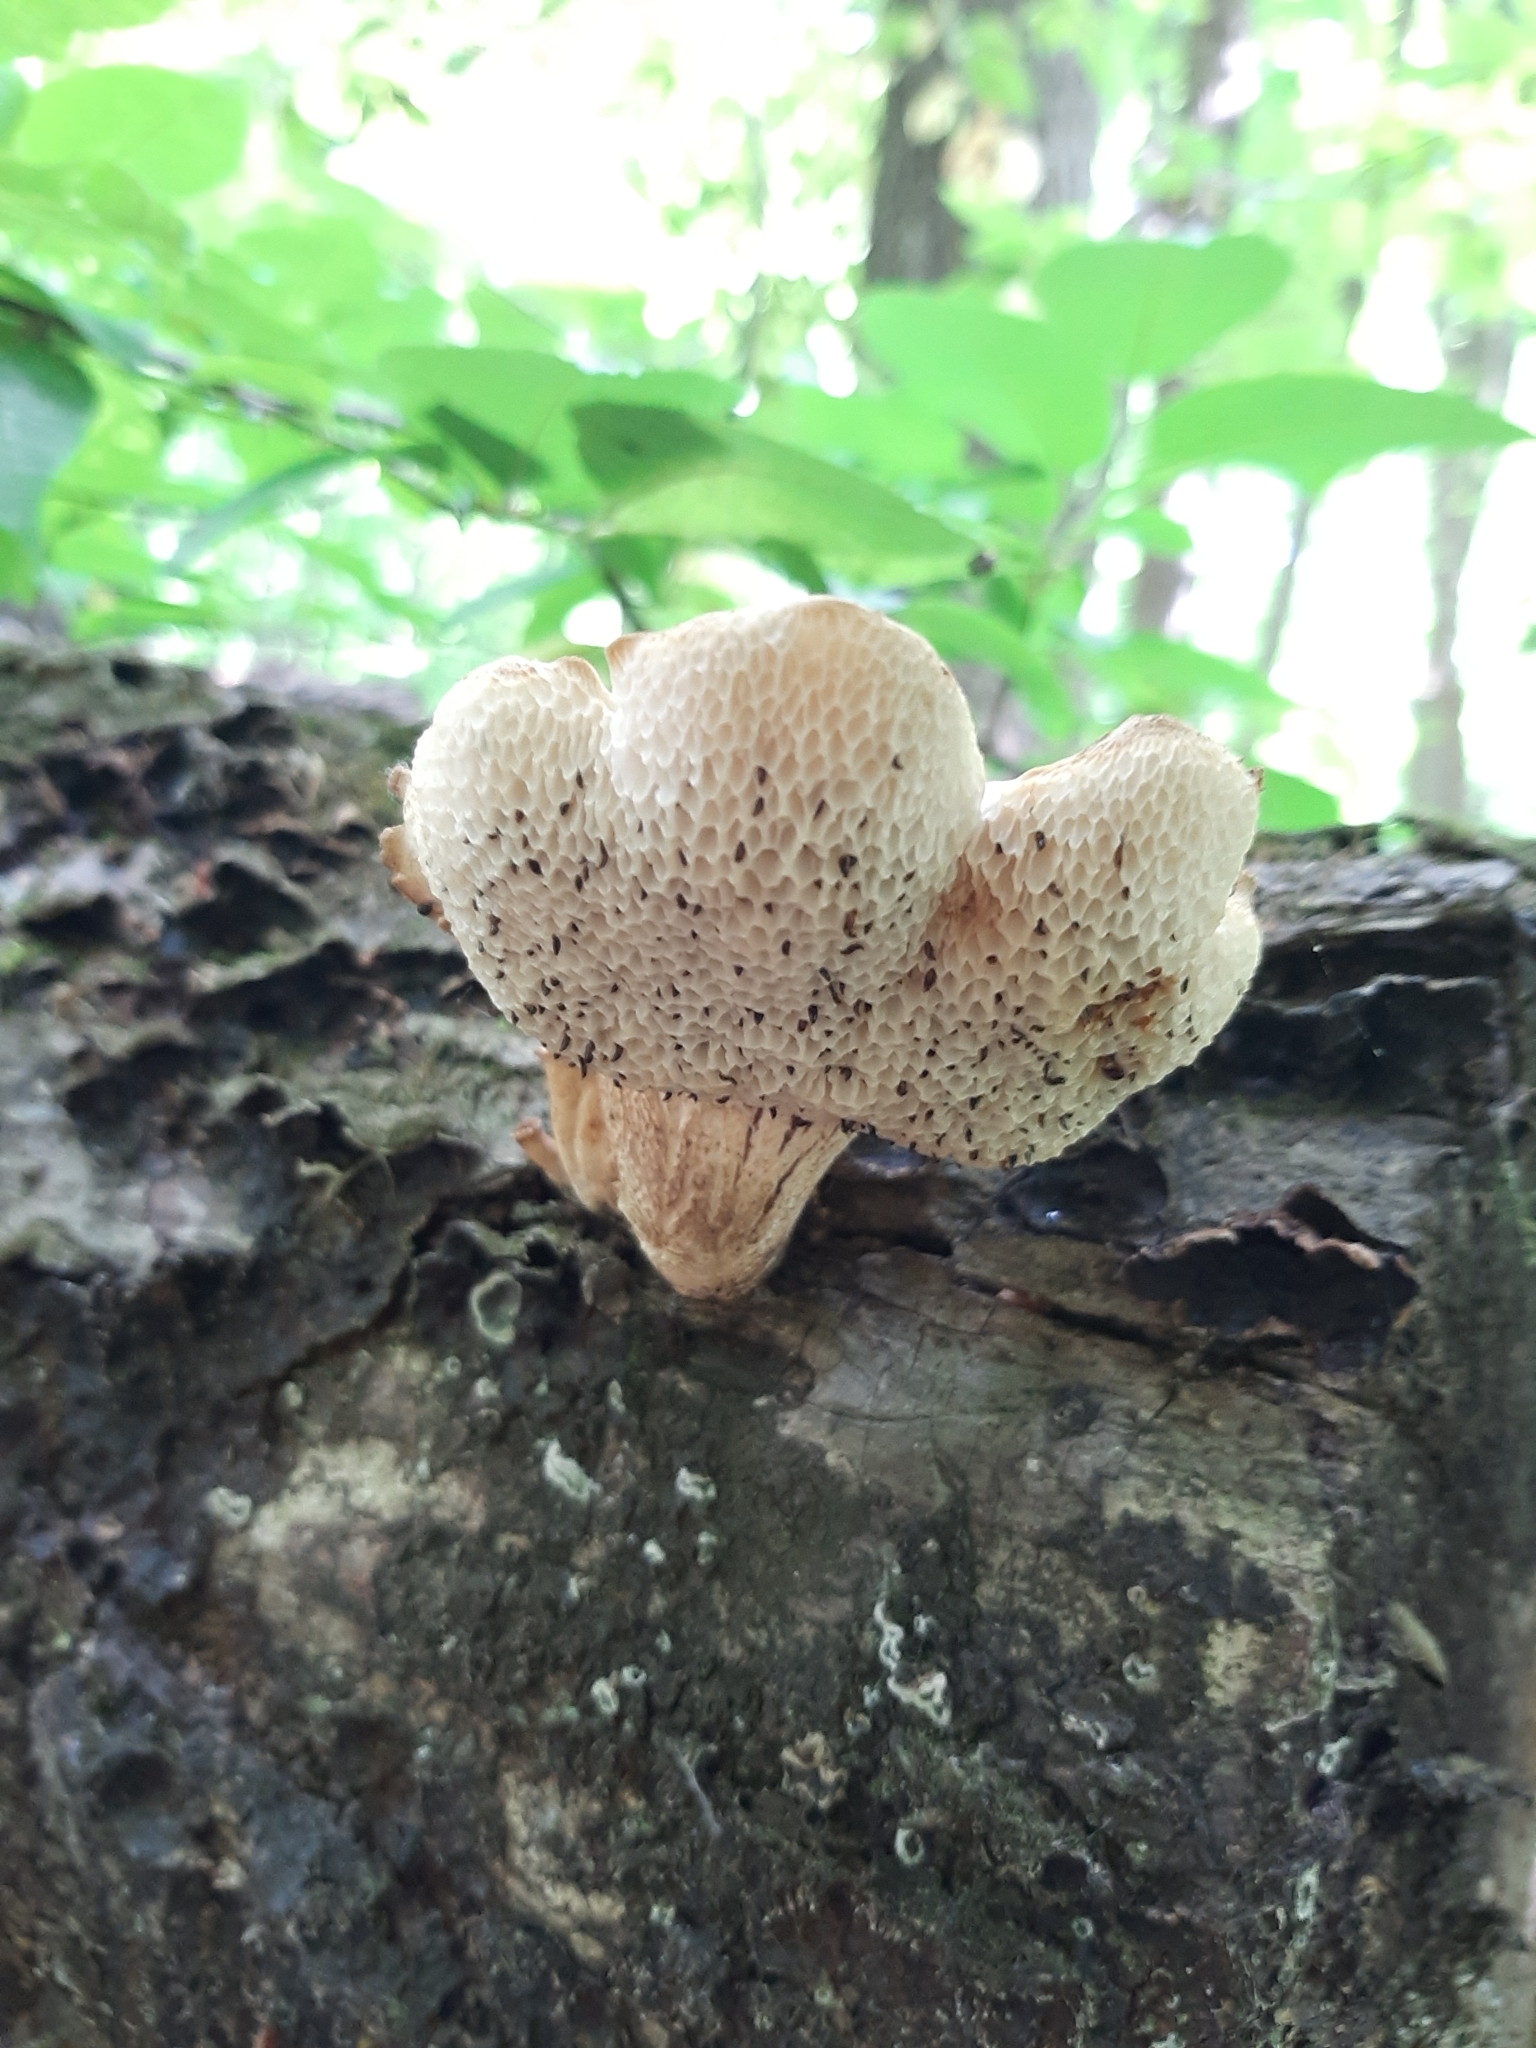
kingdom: Fungi
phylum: Basidiomycota
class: Agaricomycetes
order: Polyporales
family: Polyporaceae
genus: Cerioporus
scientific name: Cerioporus squamosus
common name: Dryad's saddle
